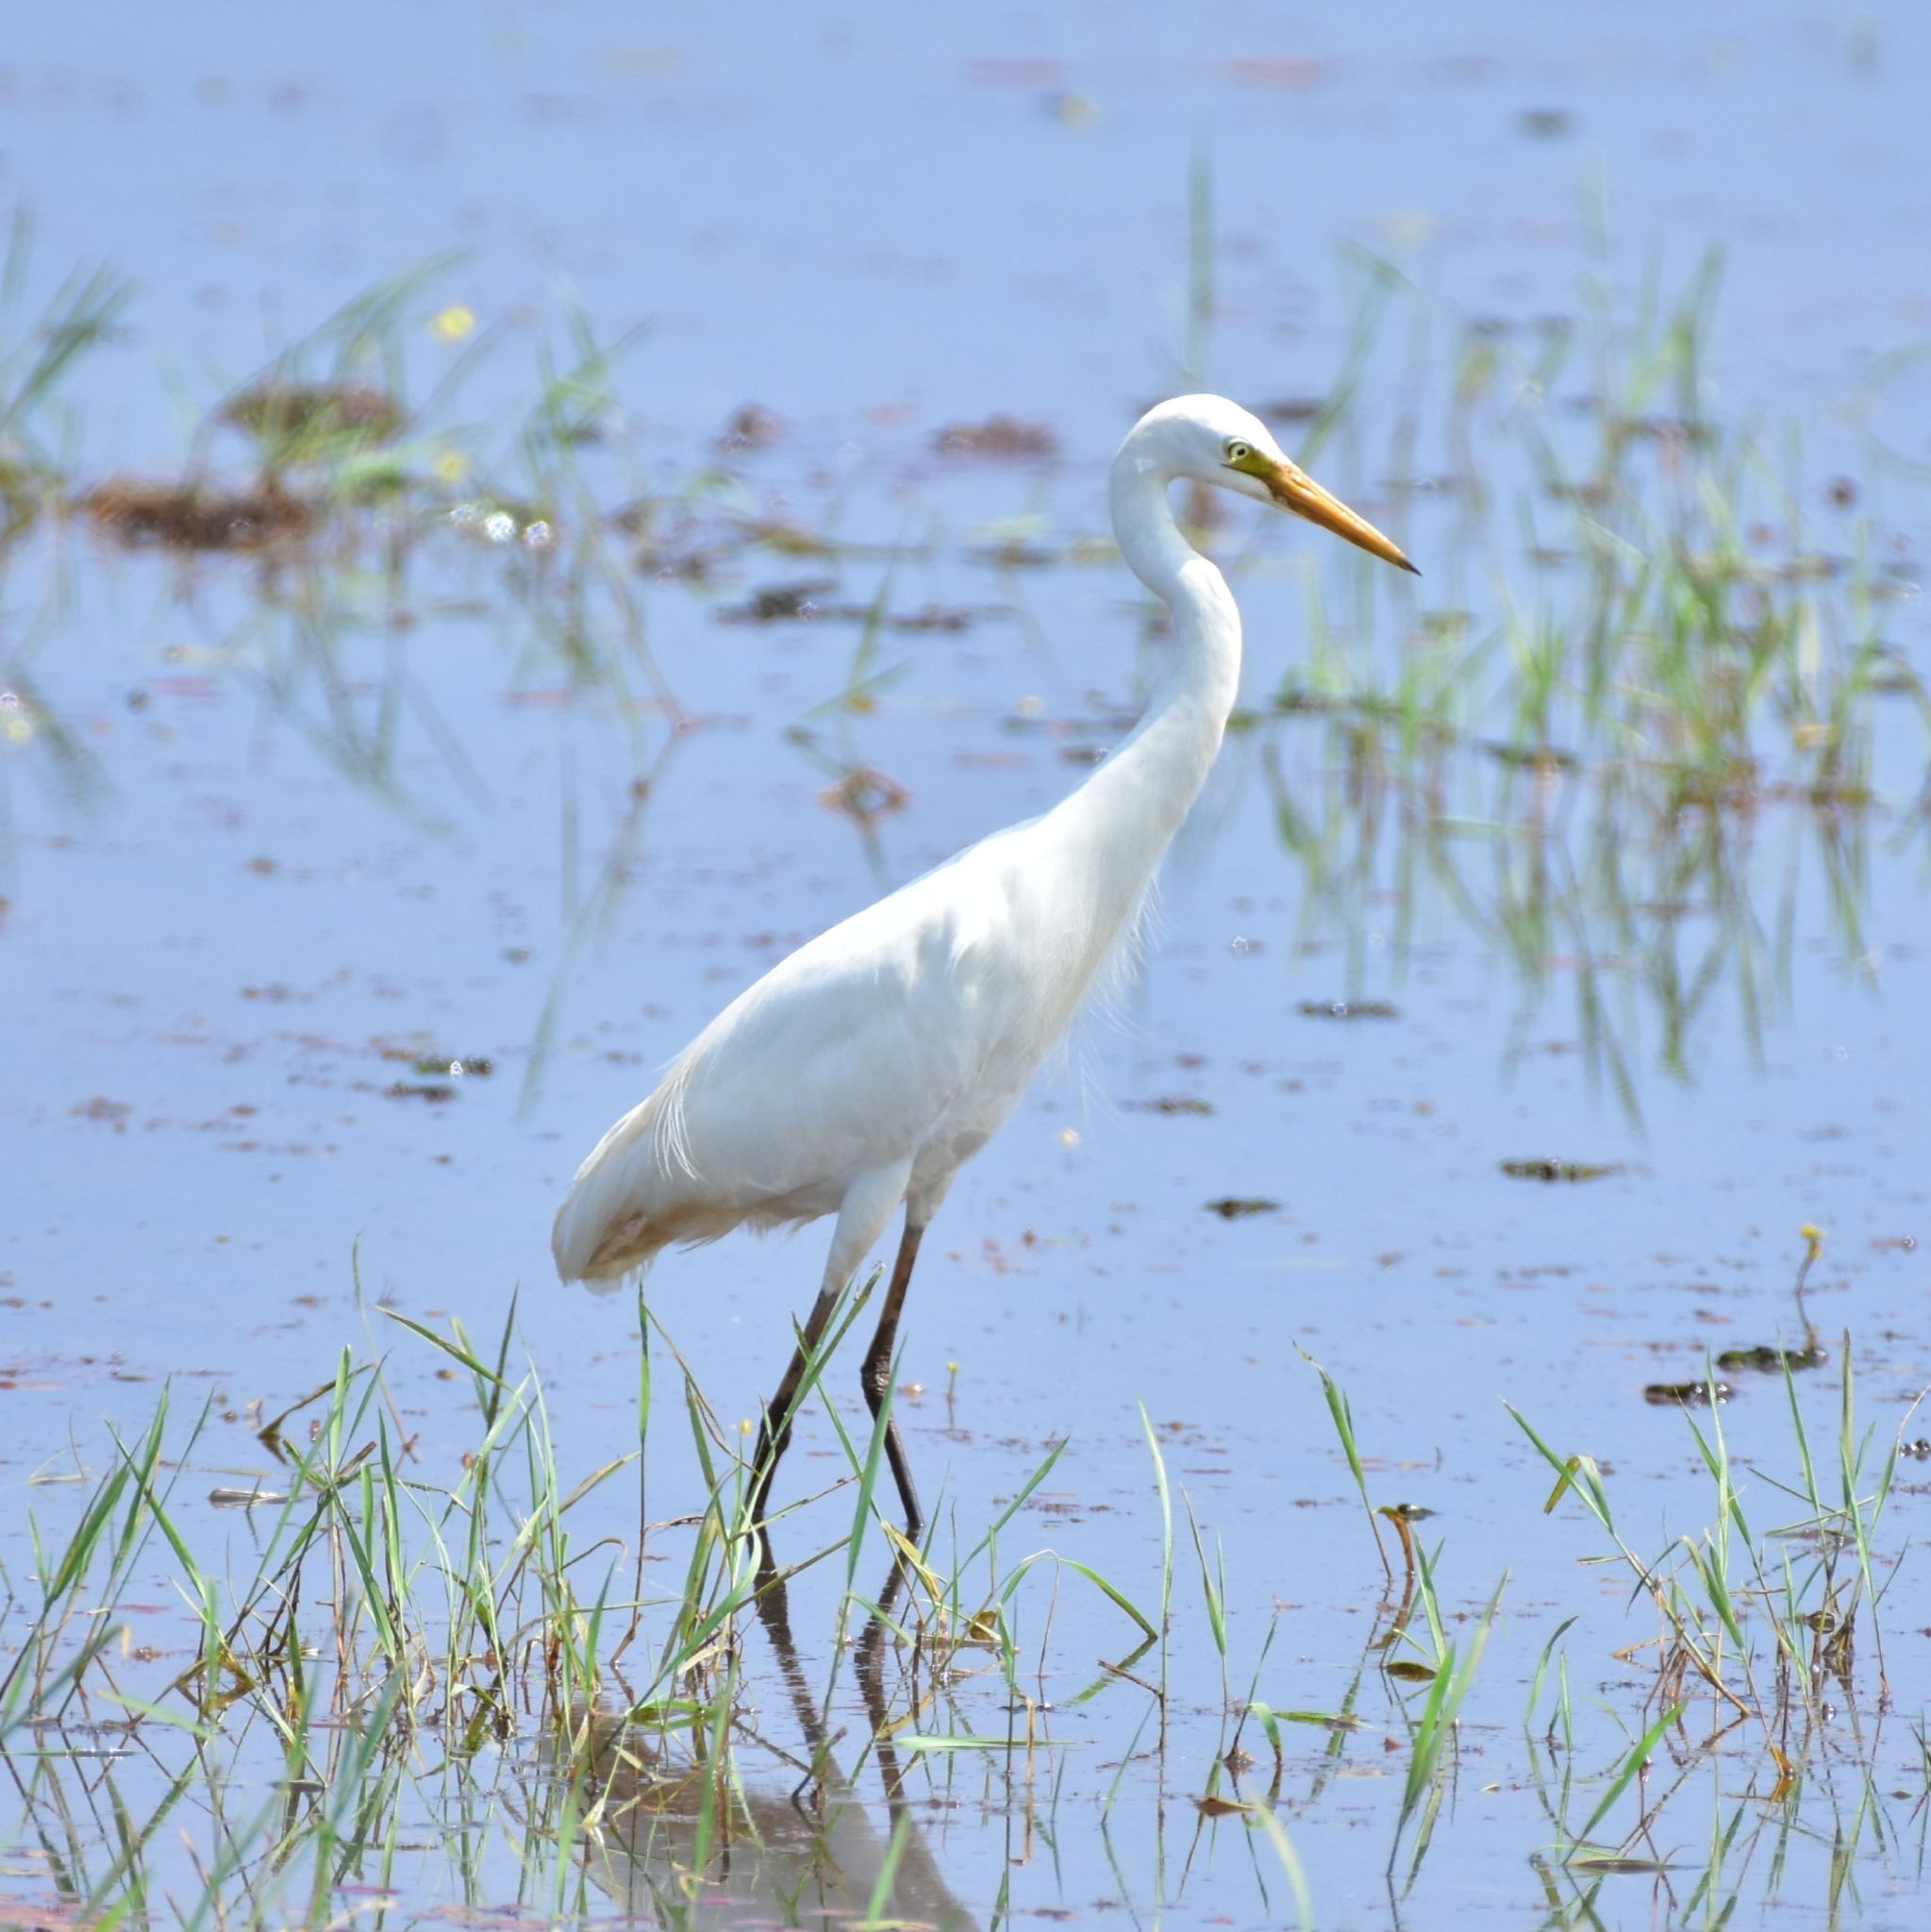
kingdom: Animalia
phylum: Chordata
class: Aves
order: Pelecaniformes
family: Ardeidae
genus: Egretta
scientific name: Egretta intermedia
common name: Intermediate egret
